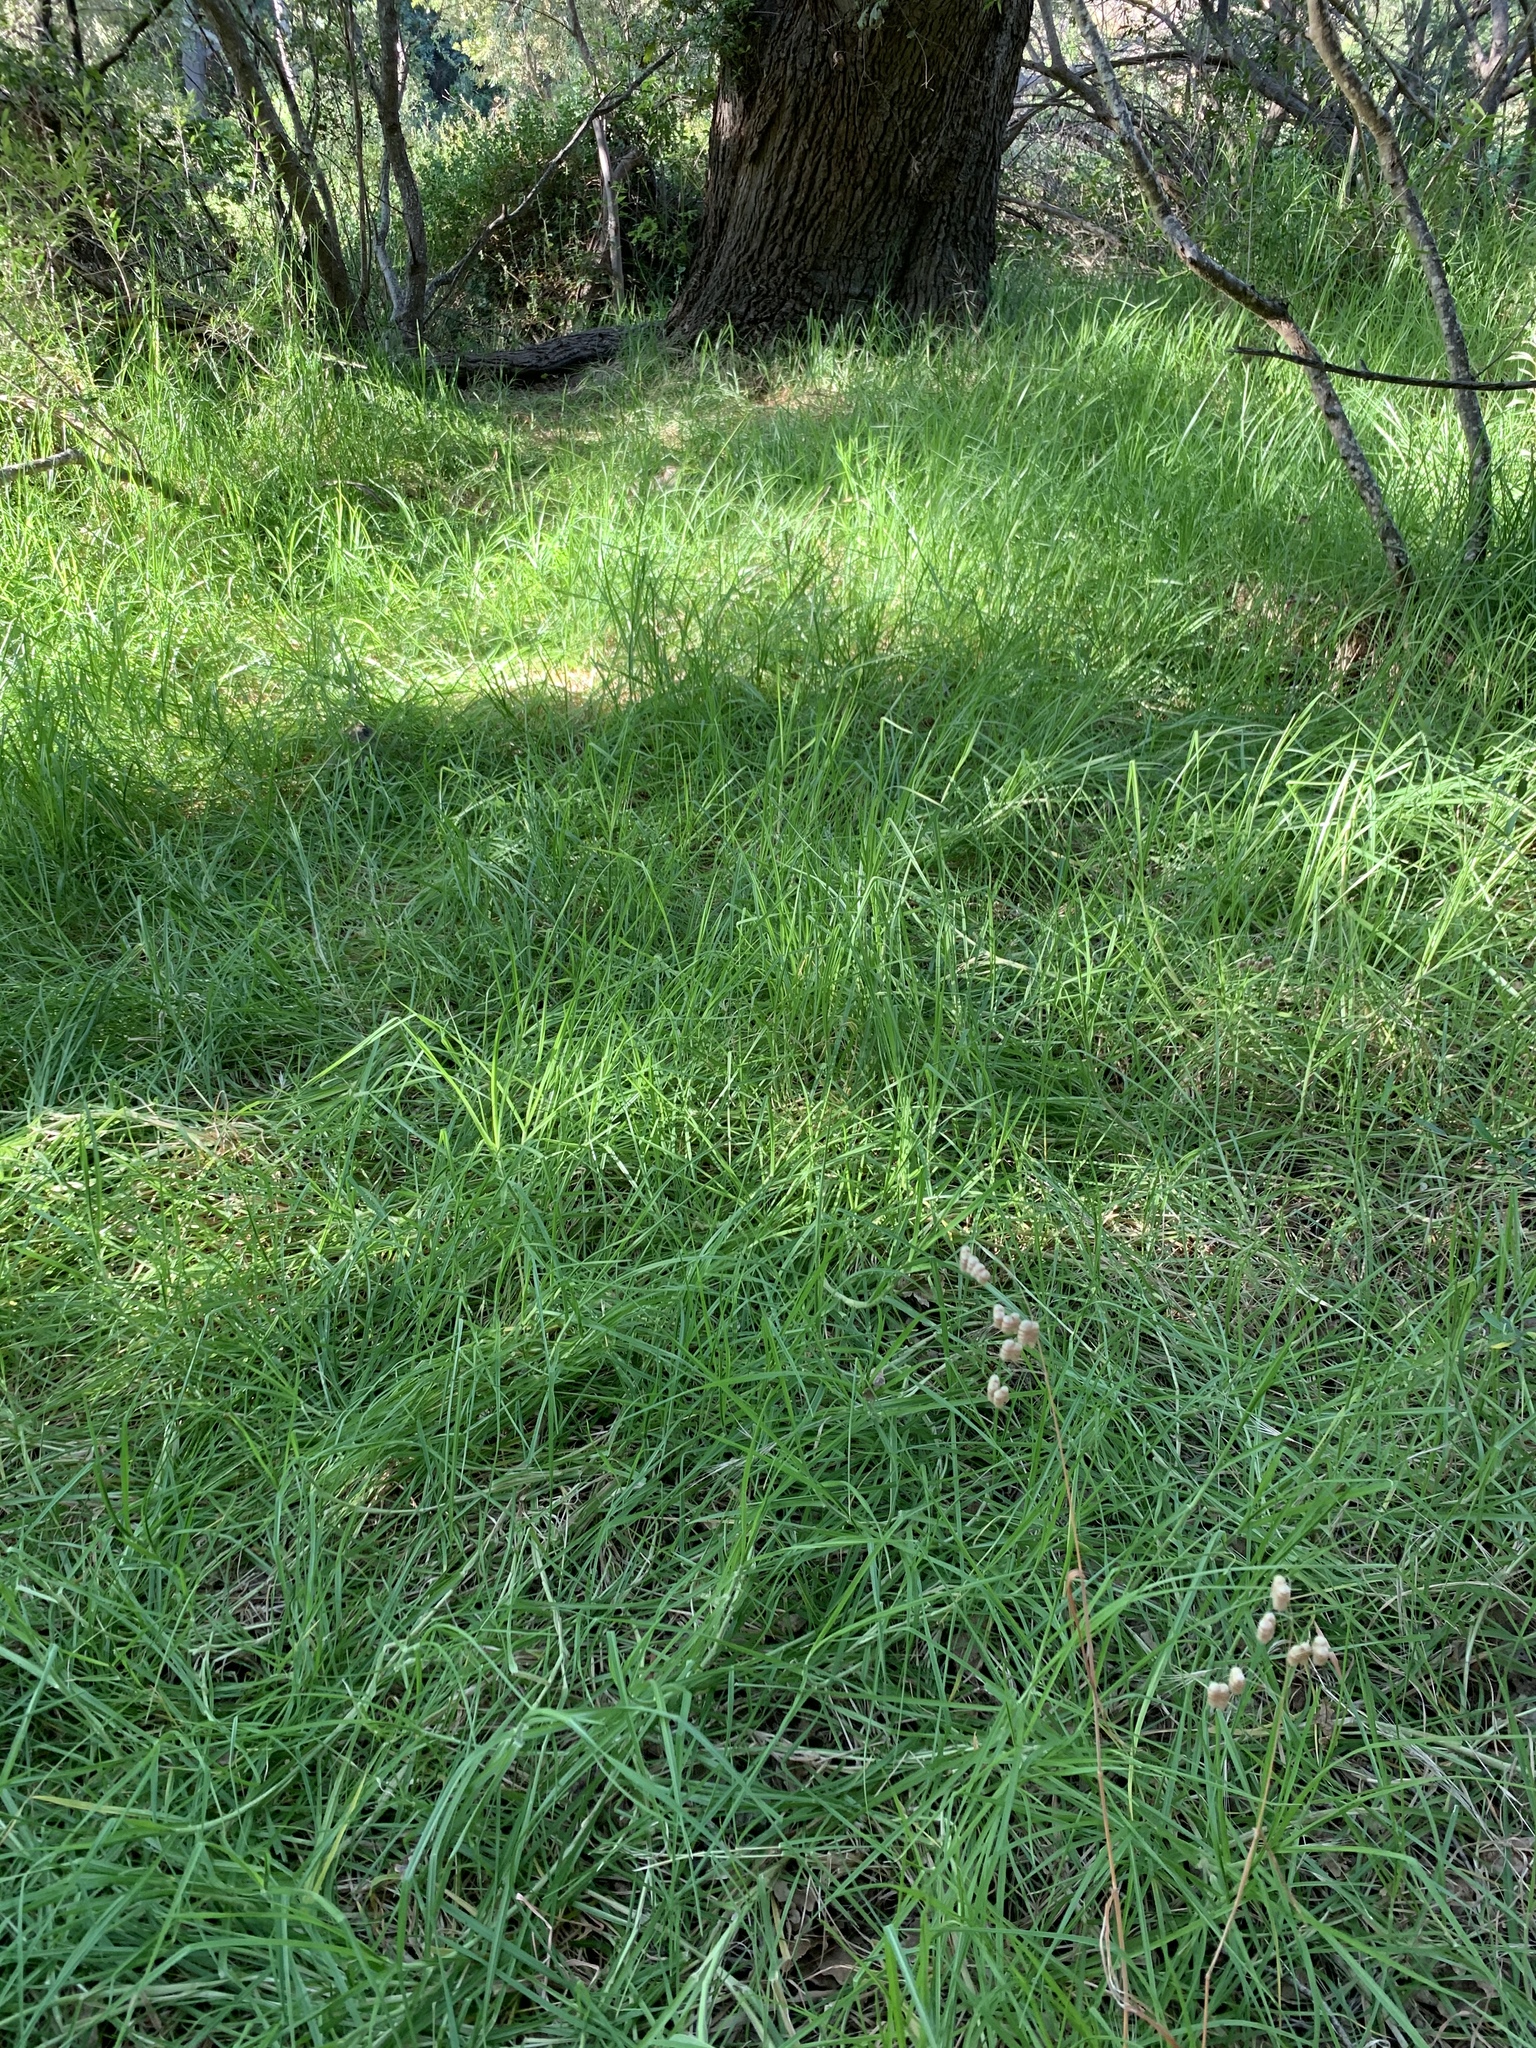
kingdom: Plantae
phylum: Tracheophyta
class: Liliopsida
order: Poales
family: Poaceae
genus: Cenchrus
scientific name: Cenchrus clandestinus
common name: Kikuyugrass
